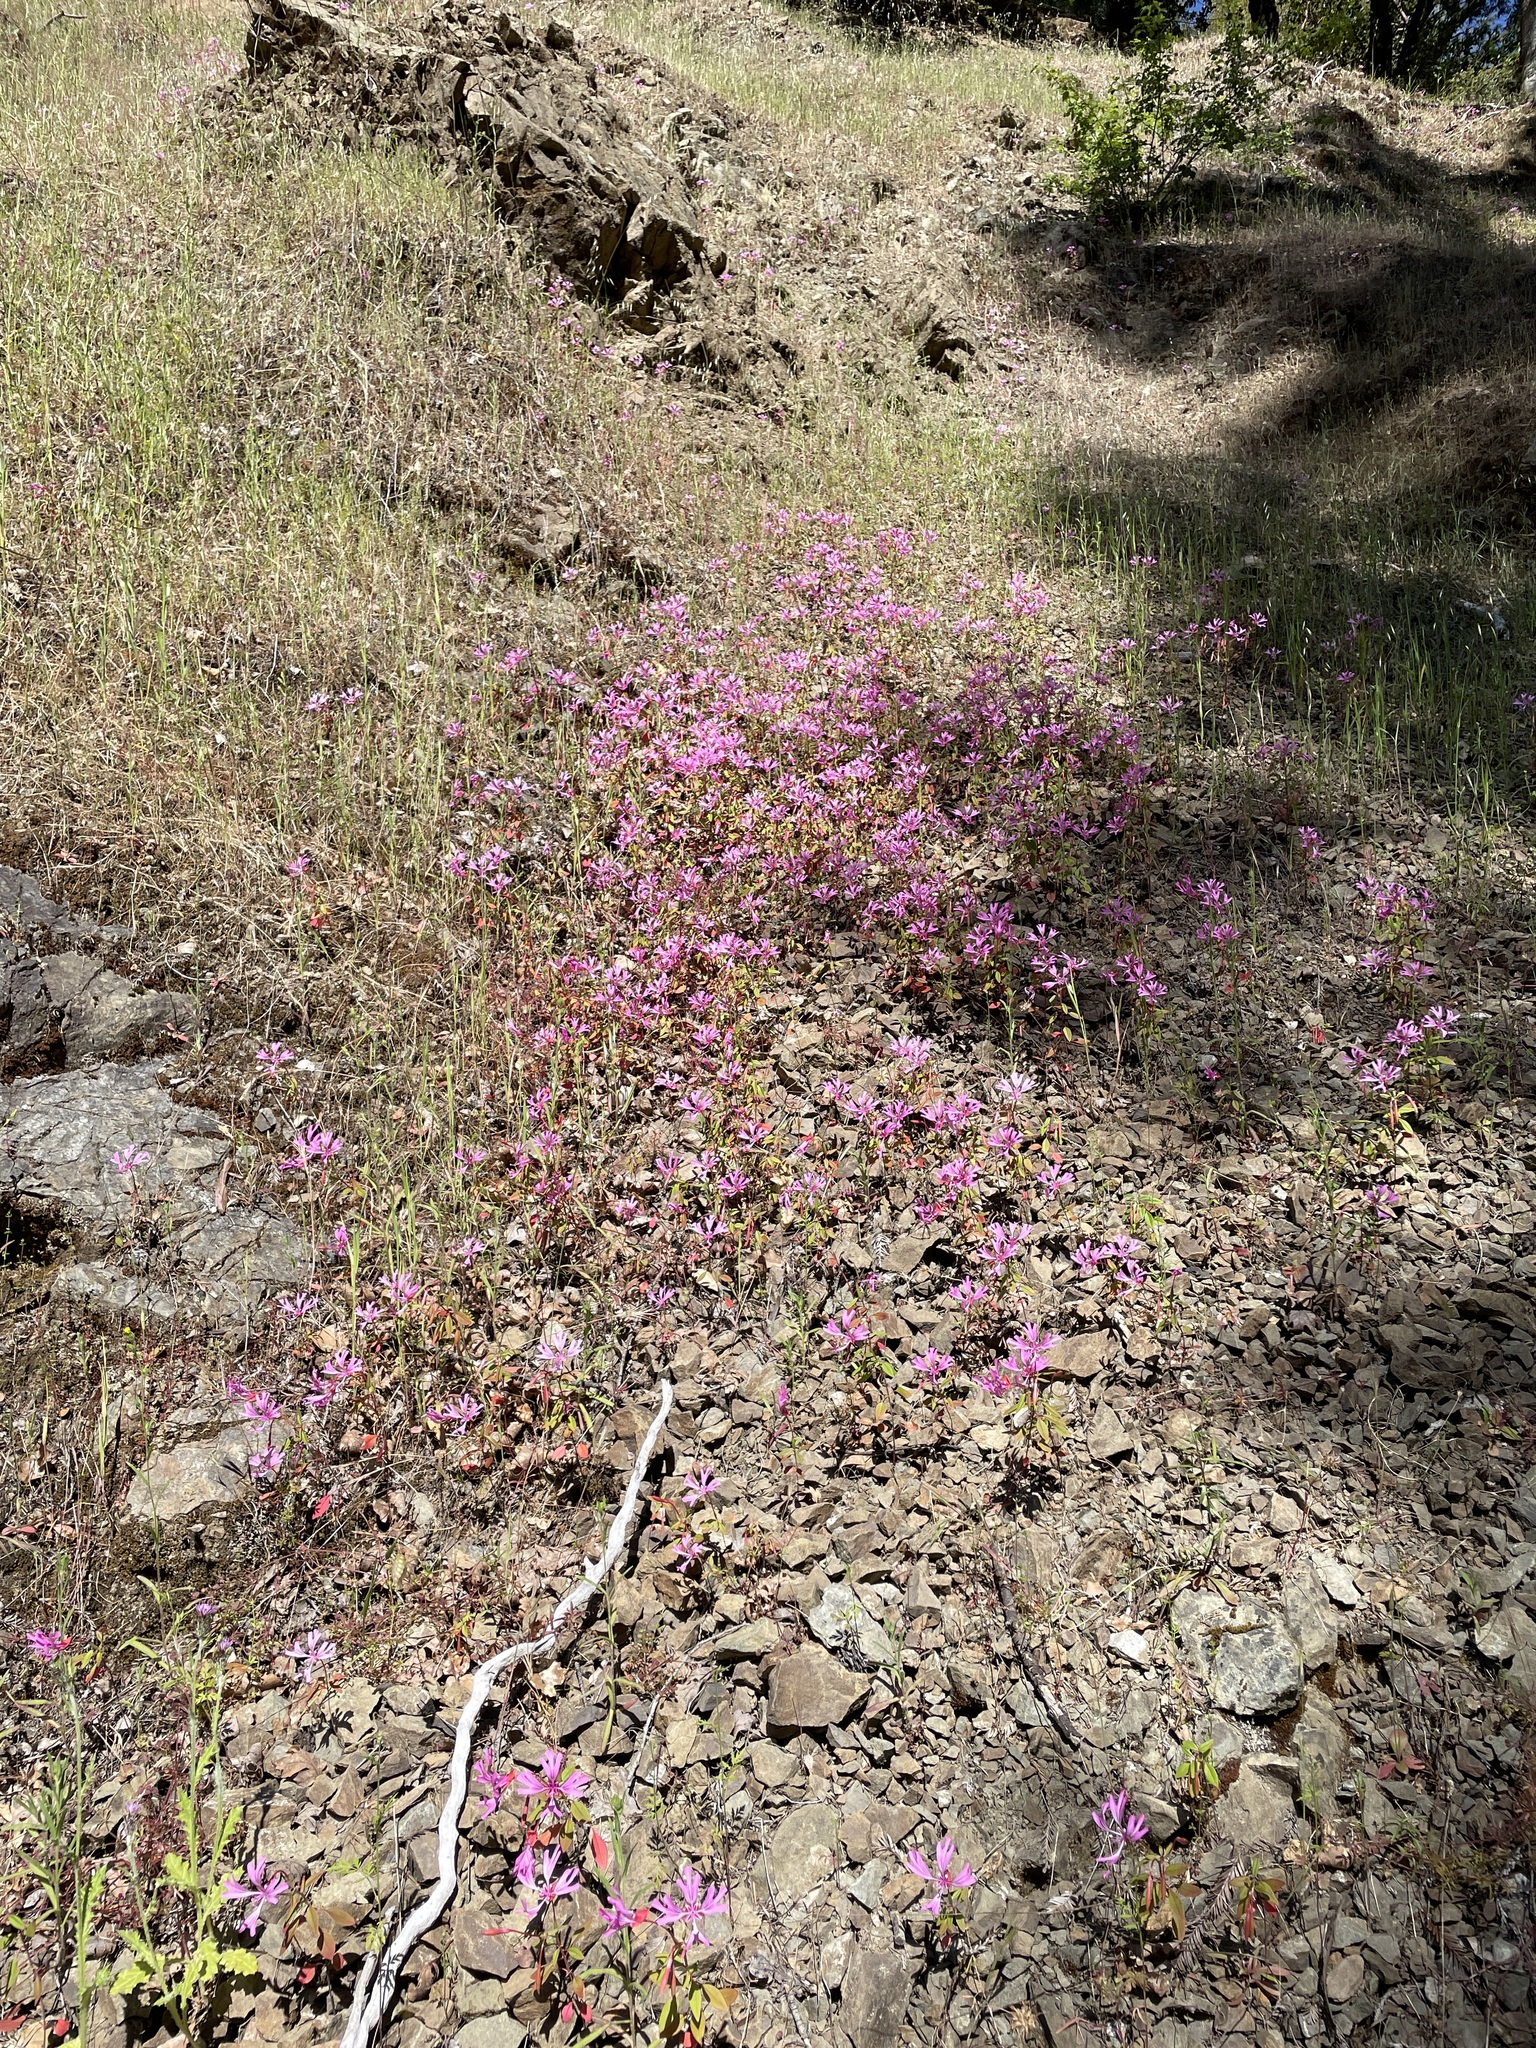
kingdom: Plantae
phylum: Tracheophyta
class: Magnoliopsida
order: Myrtales
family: Onagraceae
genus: Clarkia
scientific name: Clarkia concinna
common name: Red-ribbons
